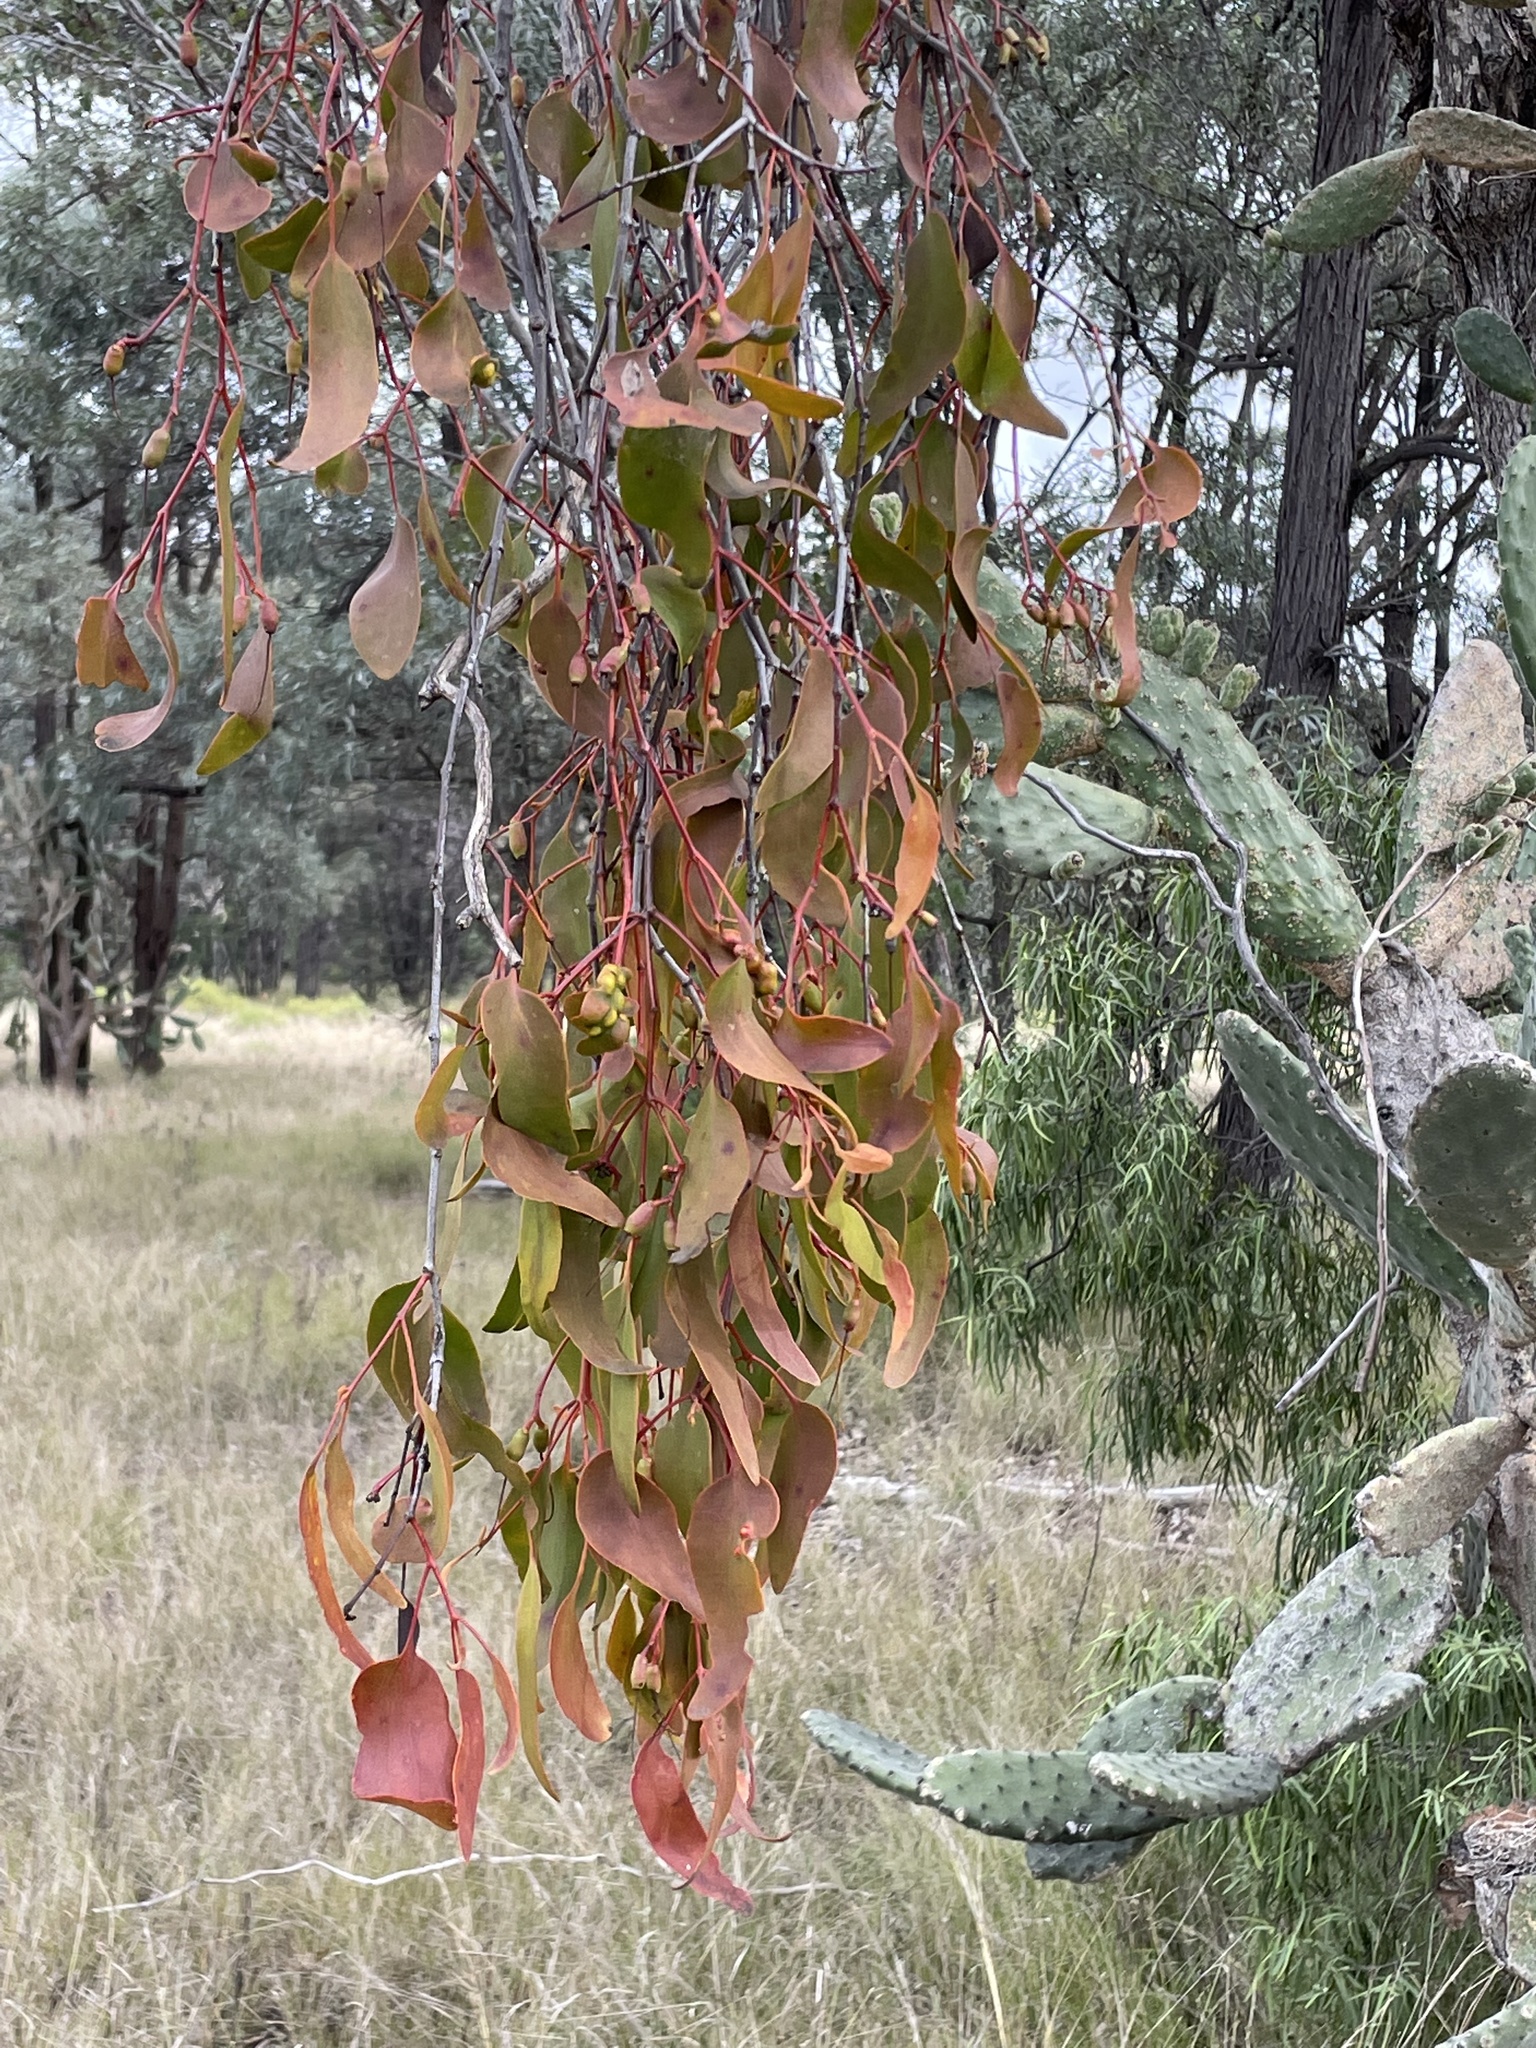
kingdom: Plantae
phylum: Tracheophyta
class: Magnoliopsida
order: Santalales
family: Loranthaceae
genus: Amyema
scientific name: Amyema miquelii
